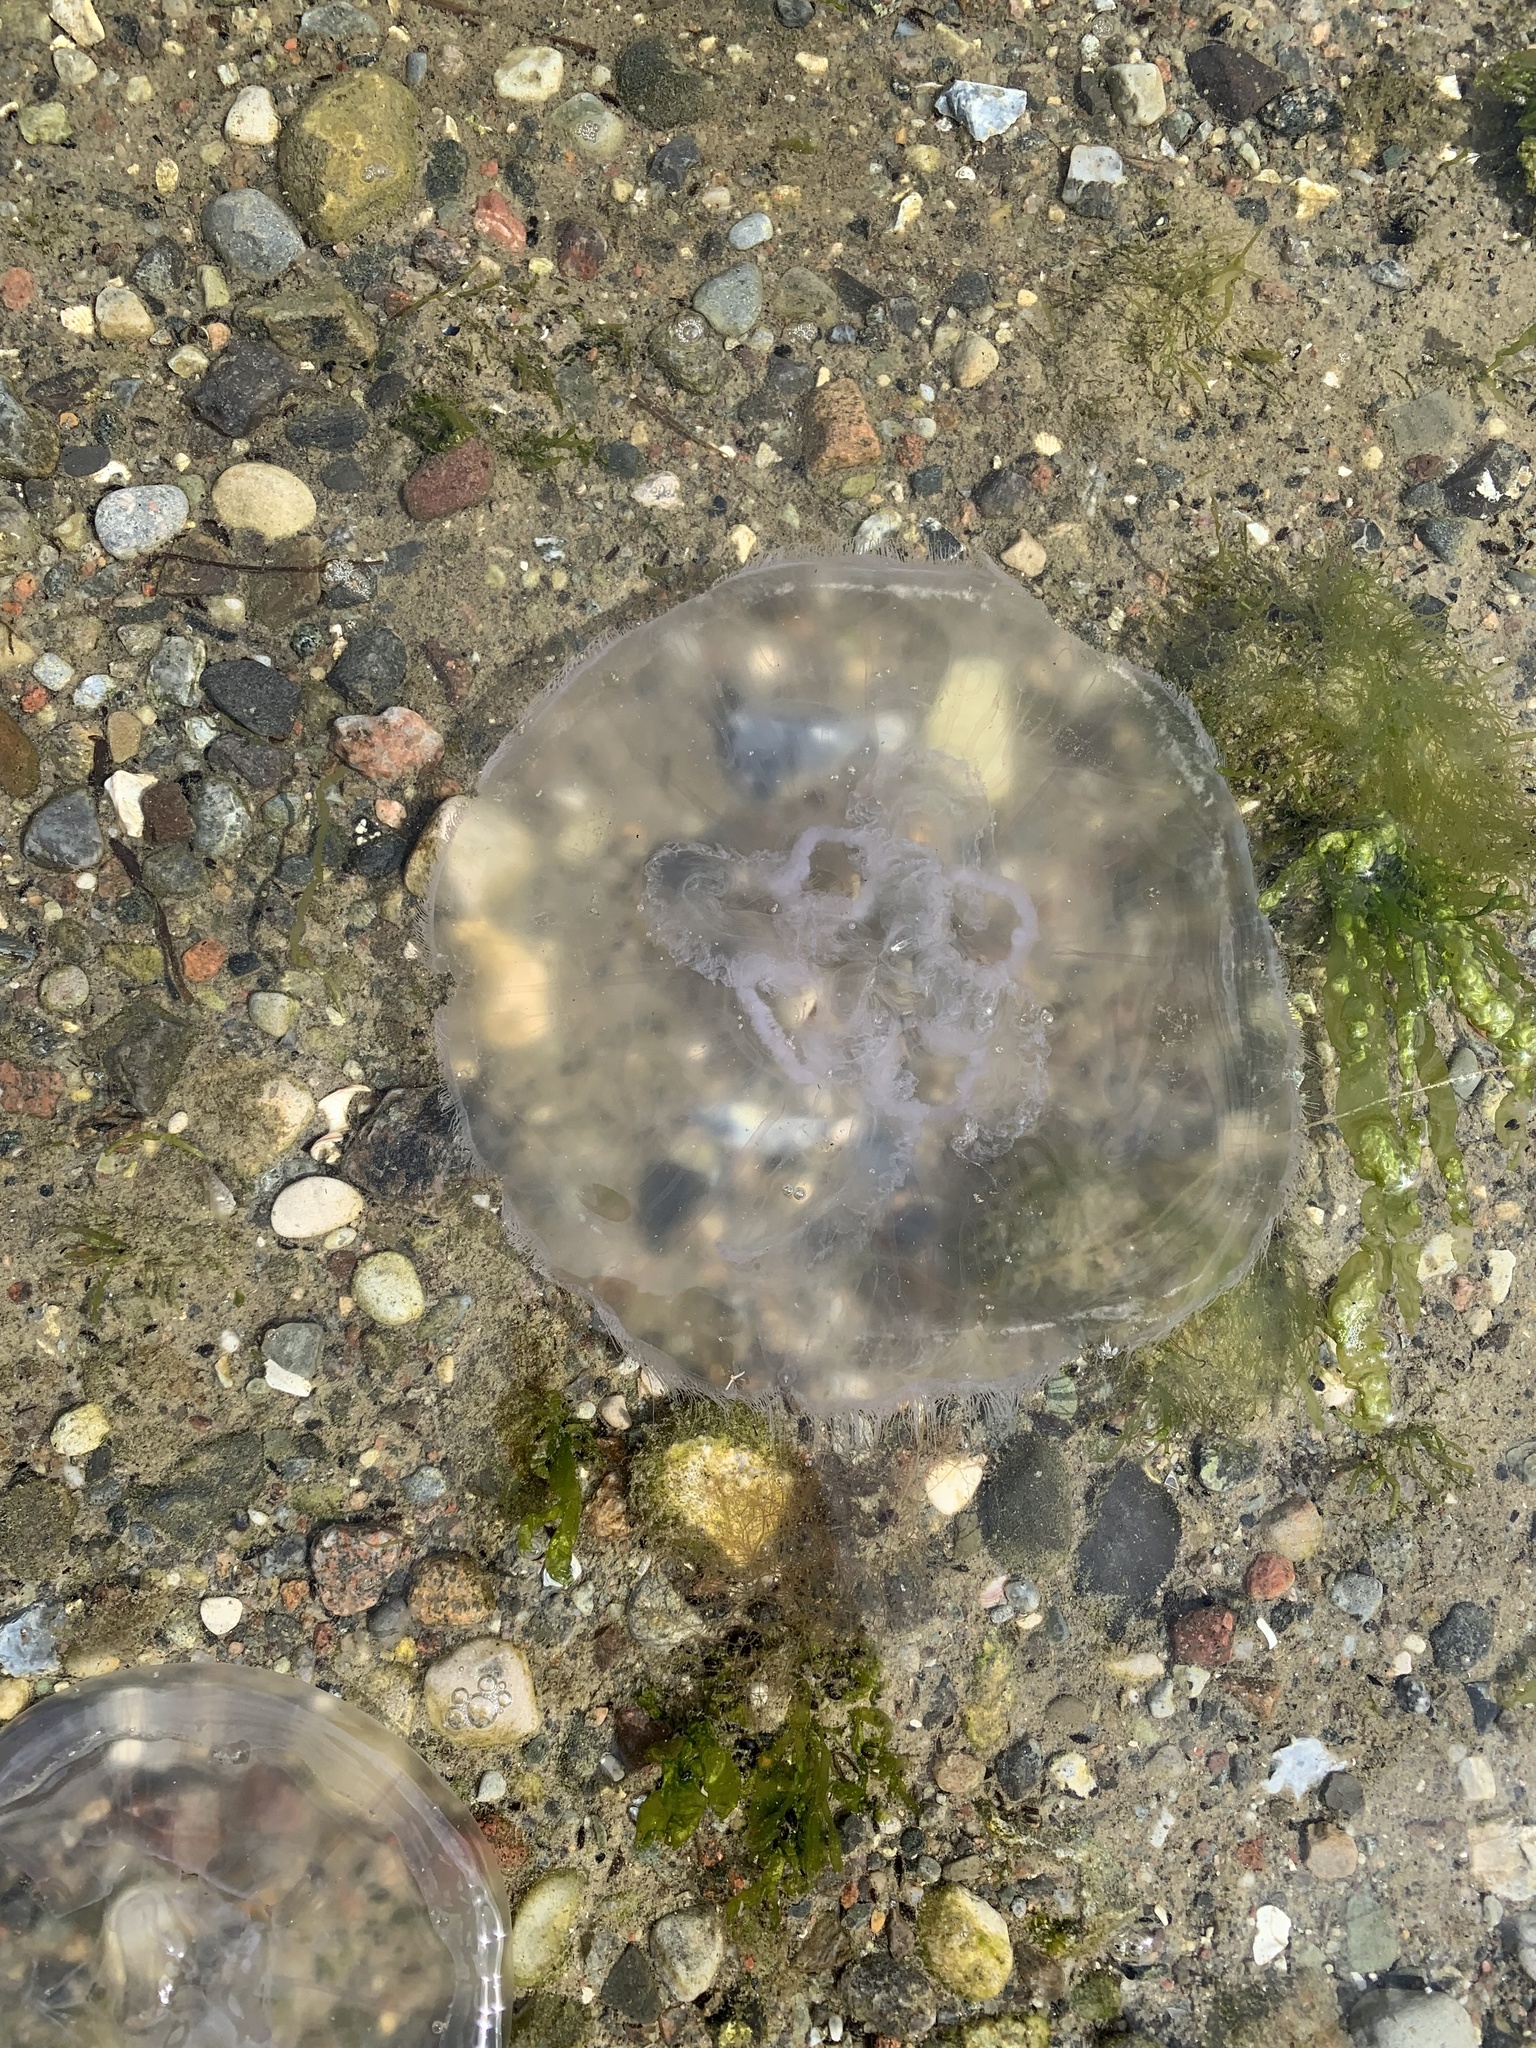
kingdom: Animalia
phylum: Cnidaria
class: Scyphozoa
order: Semaeostomeae
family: Ulmaridae
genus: Aurelia
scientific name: Aurelia aurita
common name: Moon jellyfish
